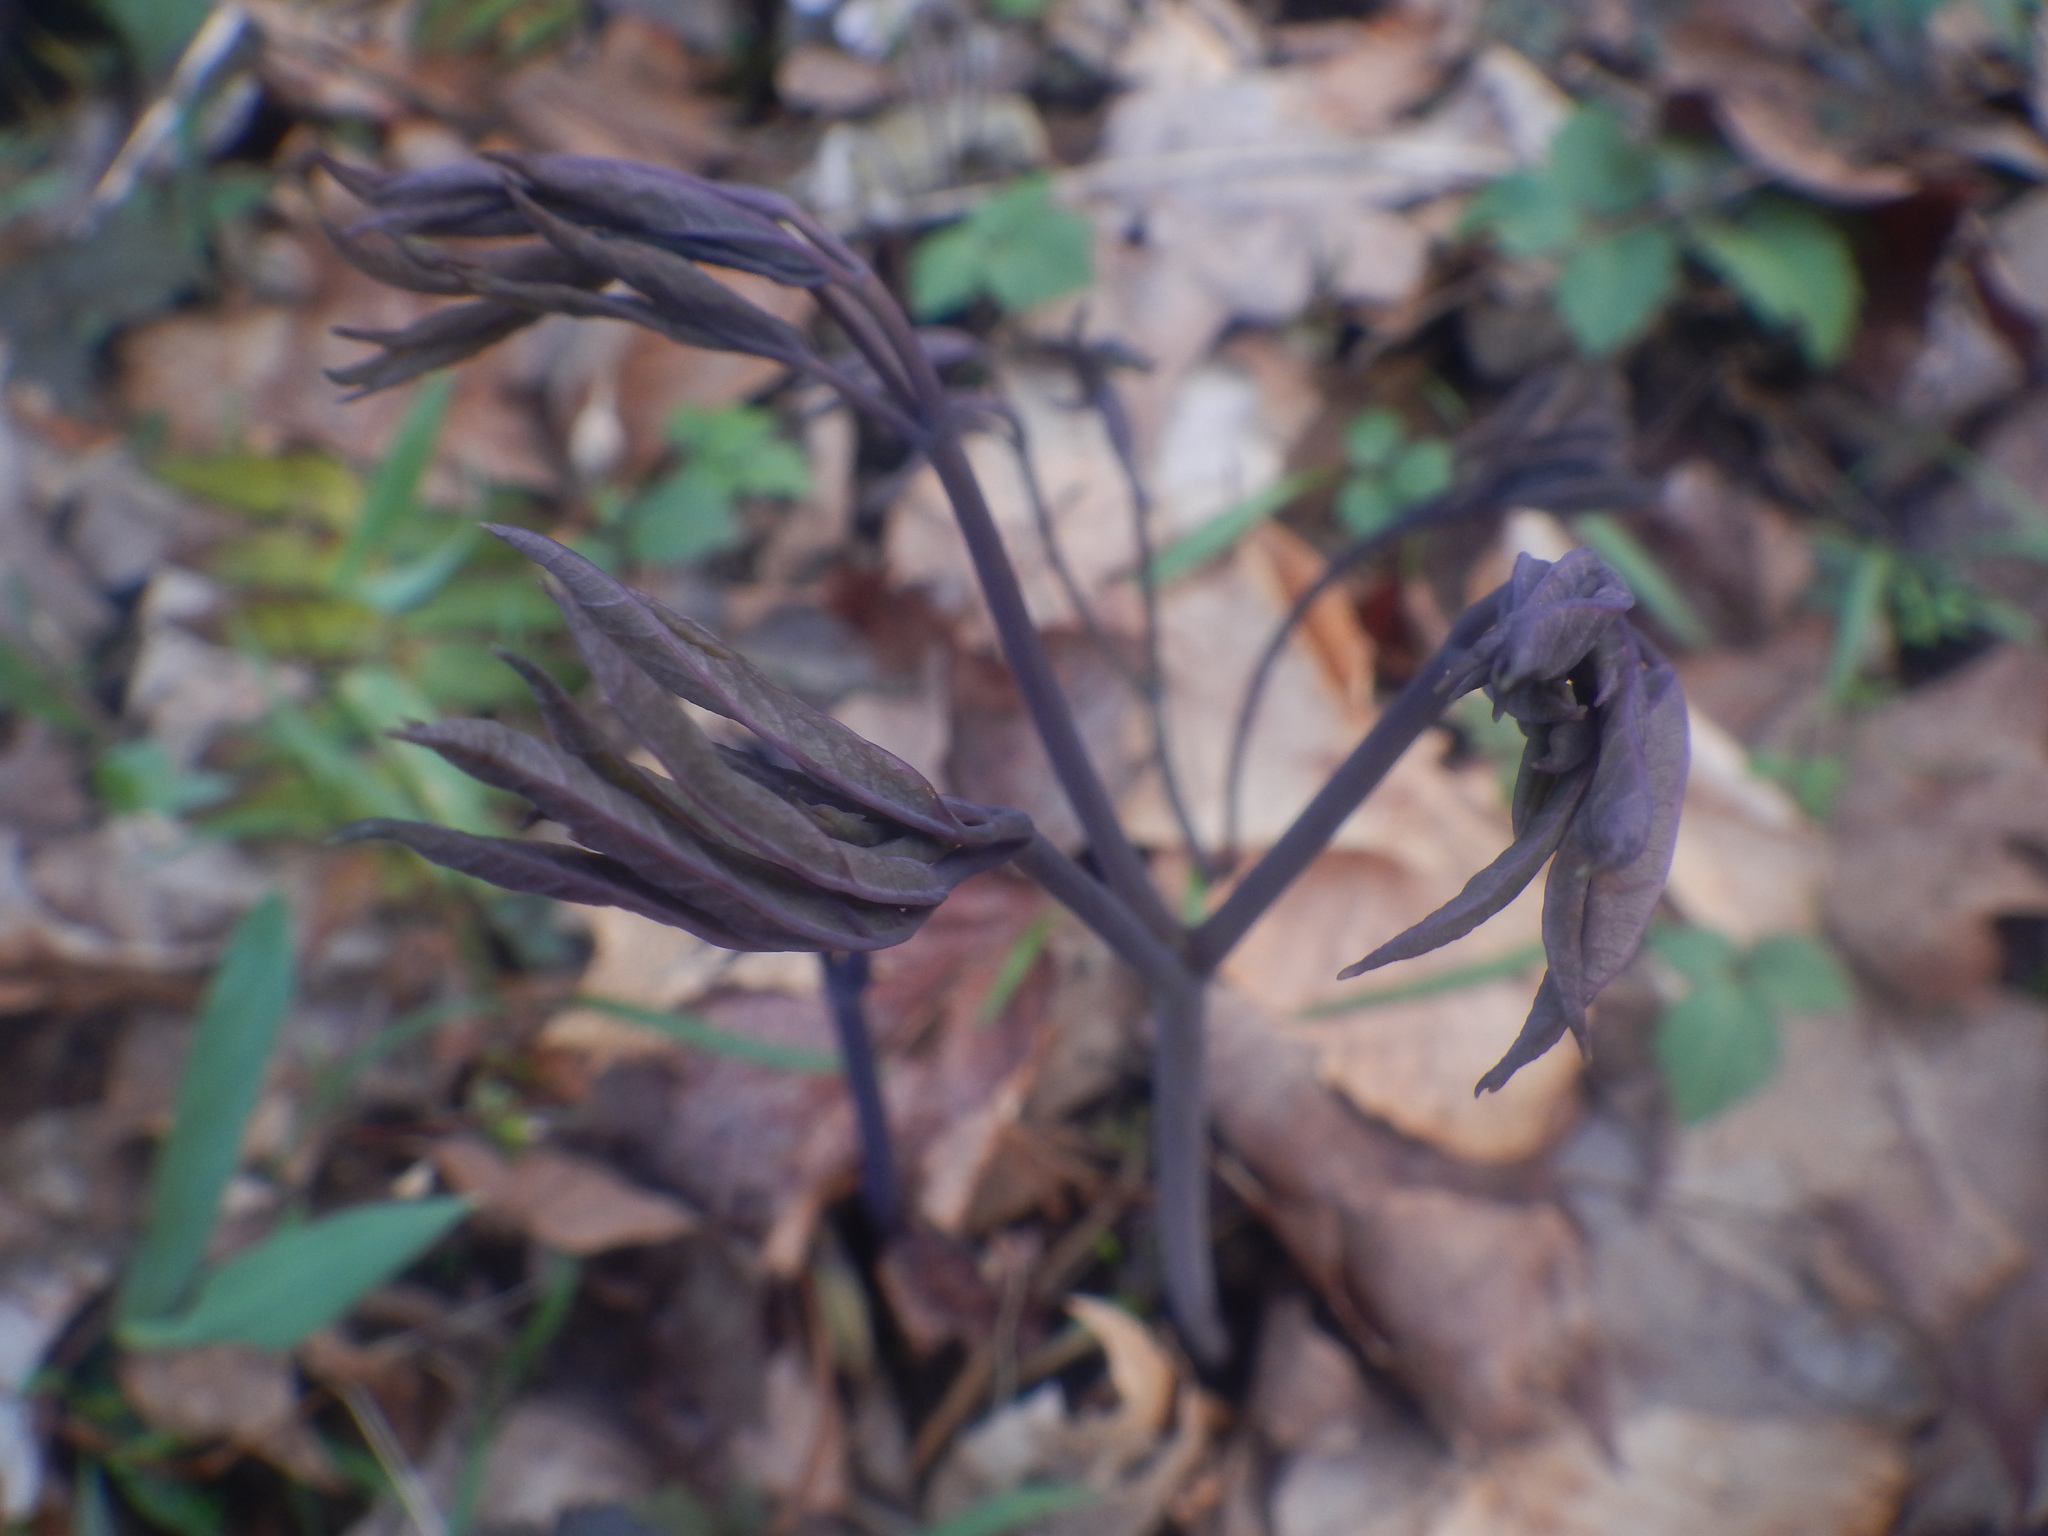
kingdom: Plantae
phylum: Tracheophyta
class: Magnoliopsida
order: Ranunculales
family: Berberidaceae
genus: Caulophyllum
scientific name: Caulophyllum giganteum
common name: Blue cohosh
